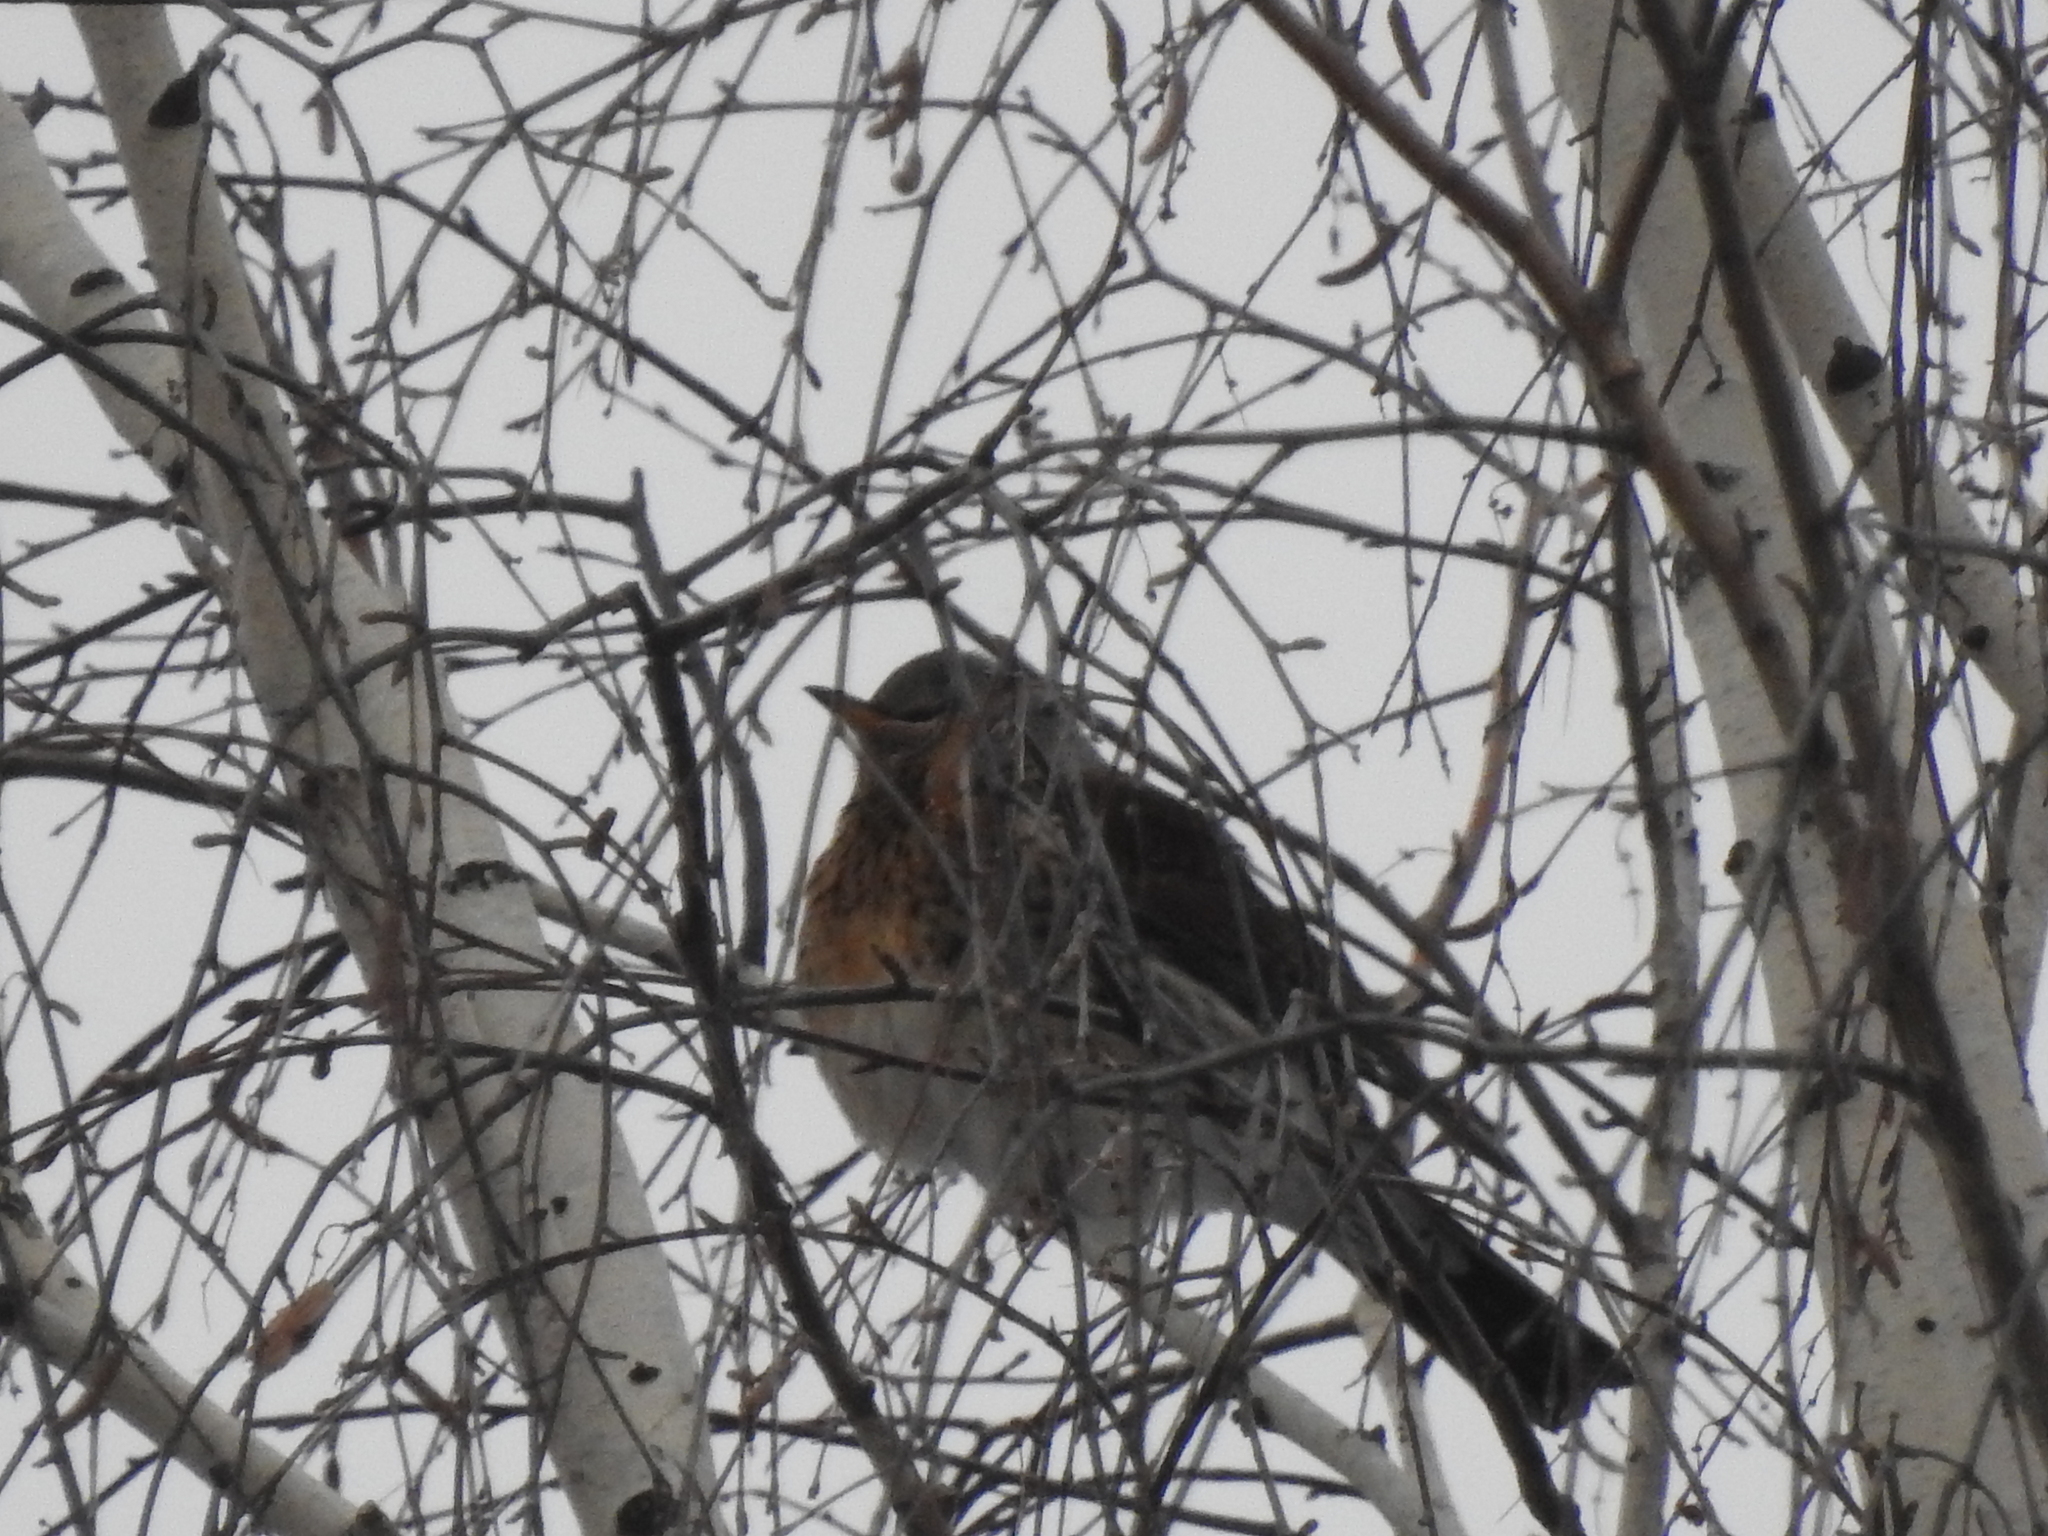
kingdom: Animalia
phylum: Chordata
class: Aves
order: Passeriformes
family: Turdidae
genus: Turdus
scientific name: Turdus pilaris
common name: Fieldfare
